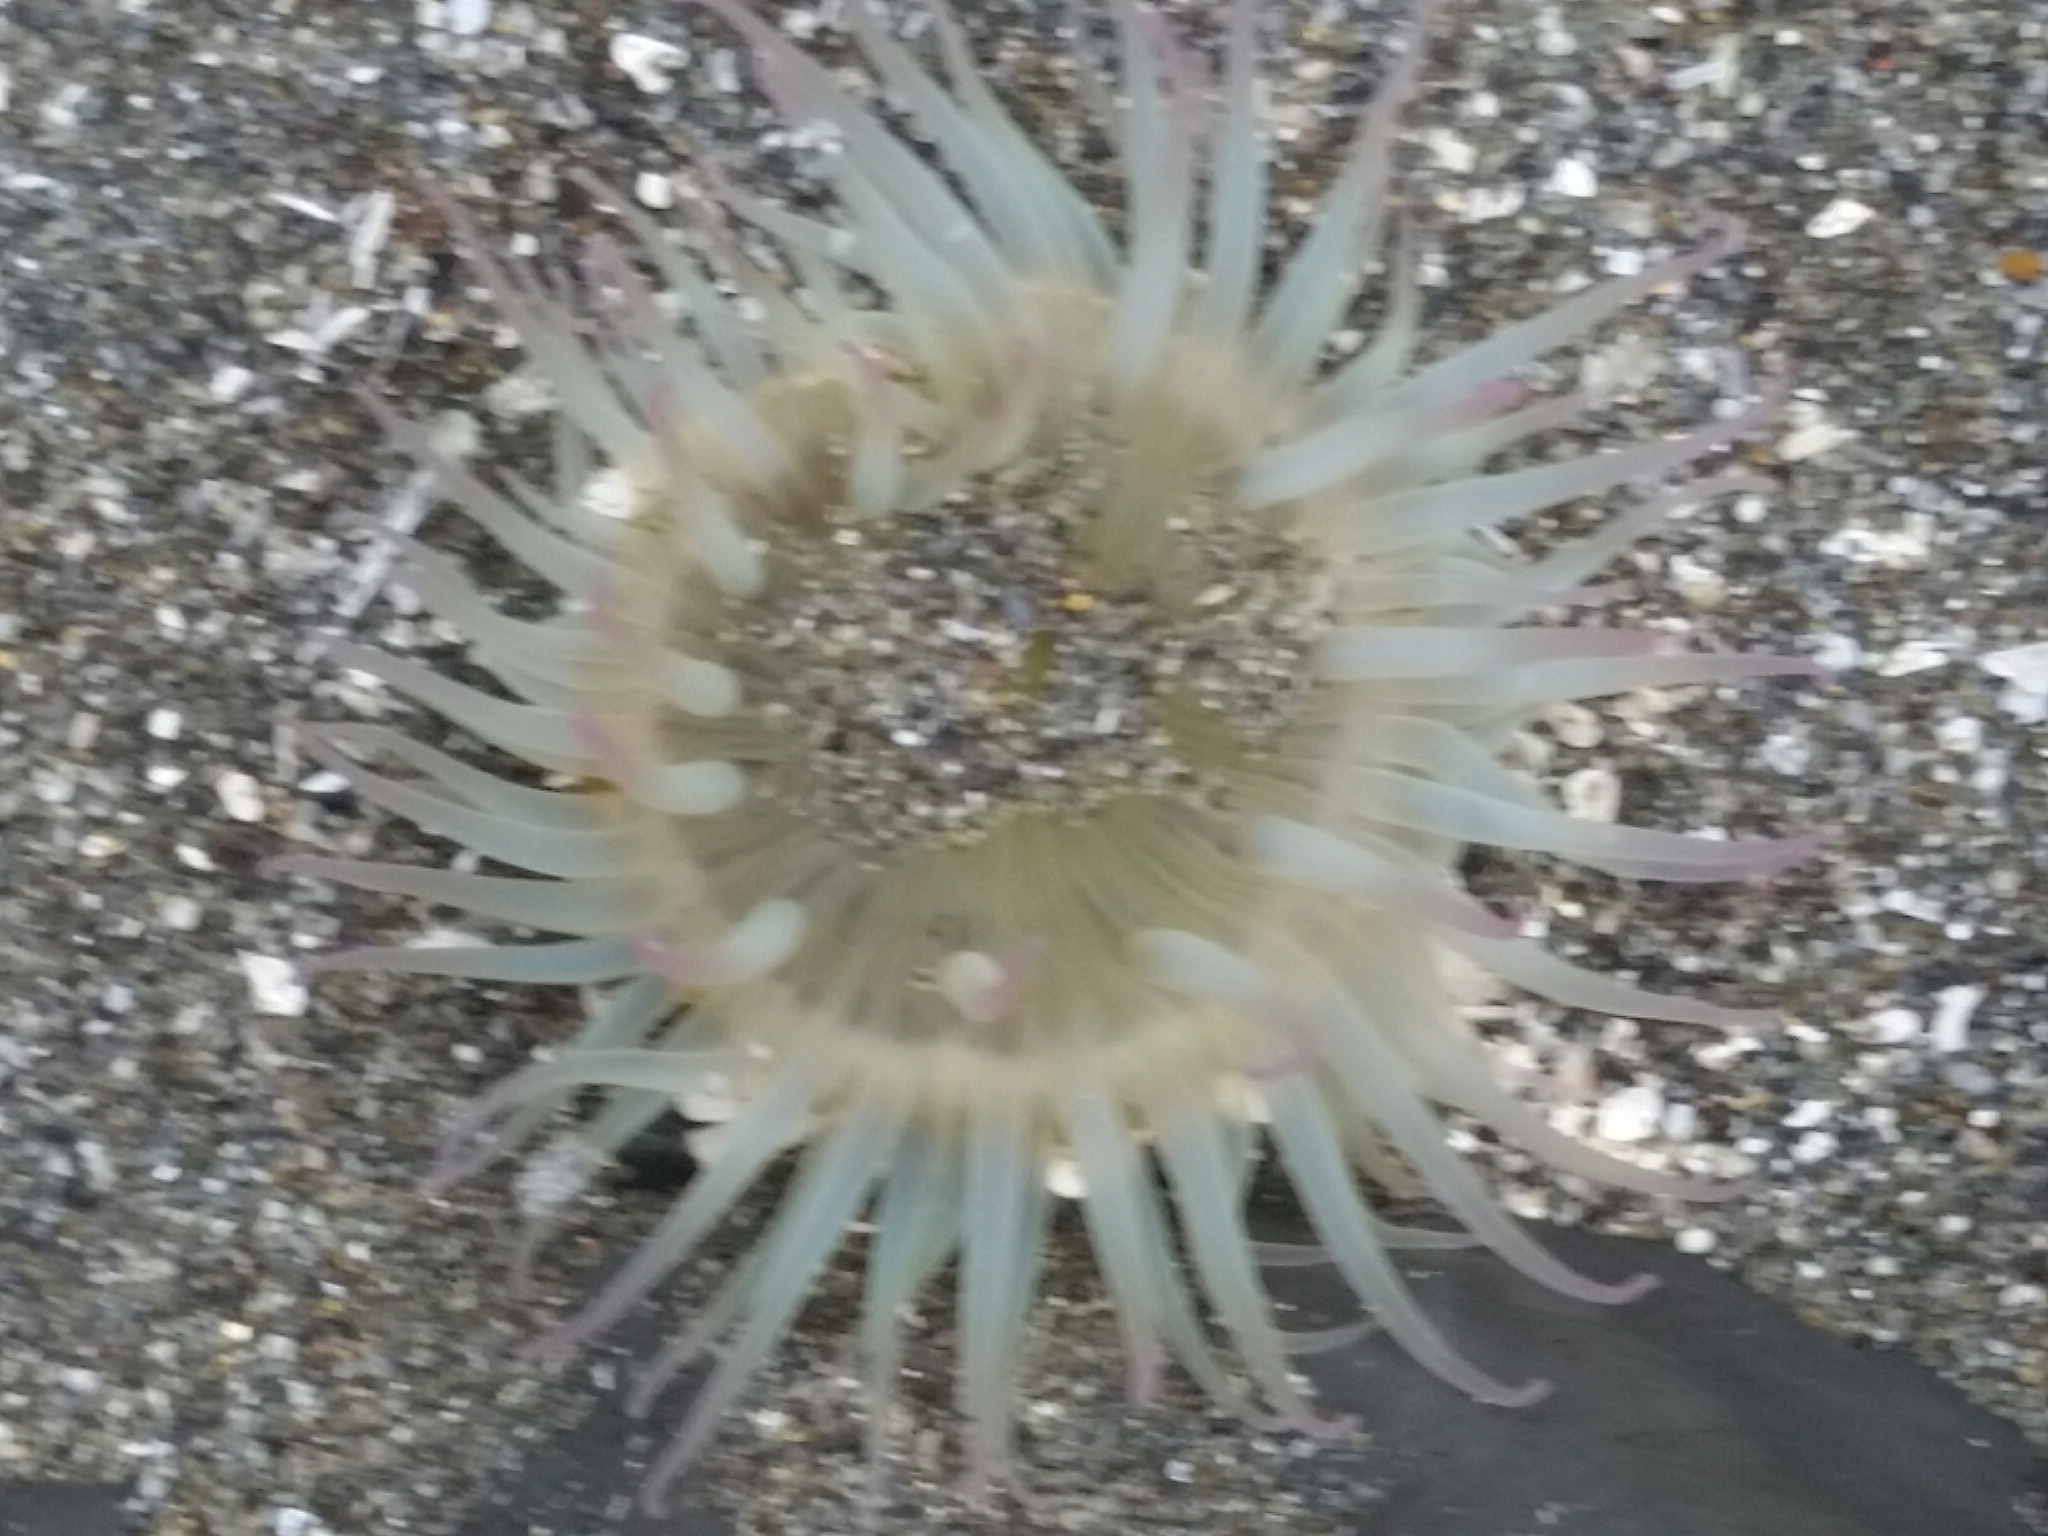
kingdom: Animalia
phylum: Cnidaria
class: Anthozoa
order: Actiniaria
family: Actiniidae
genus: Anthopleura
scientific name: Anthopleura elegantissima
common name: Clonal anemone
